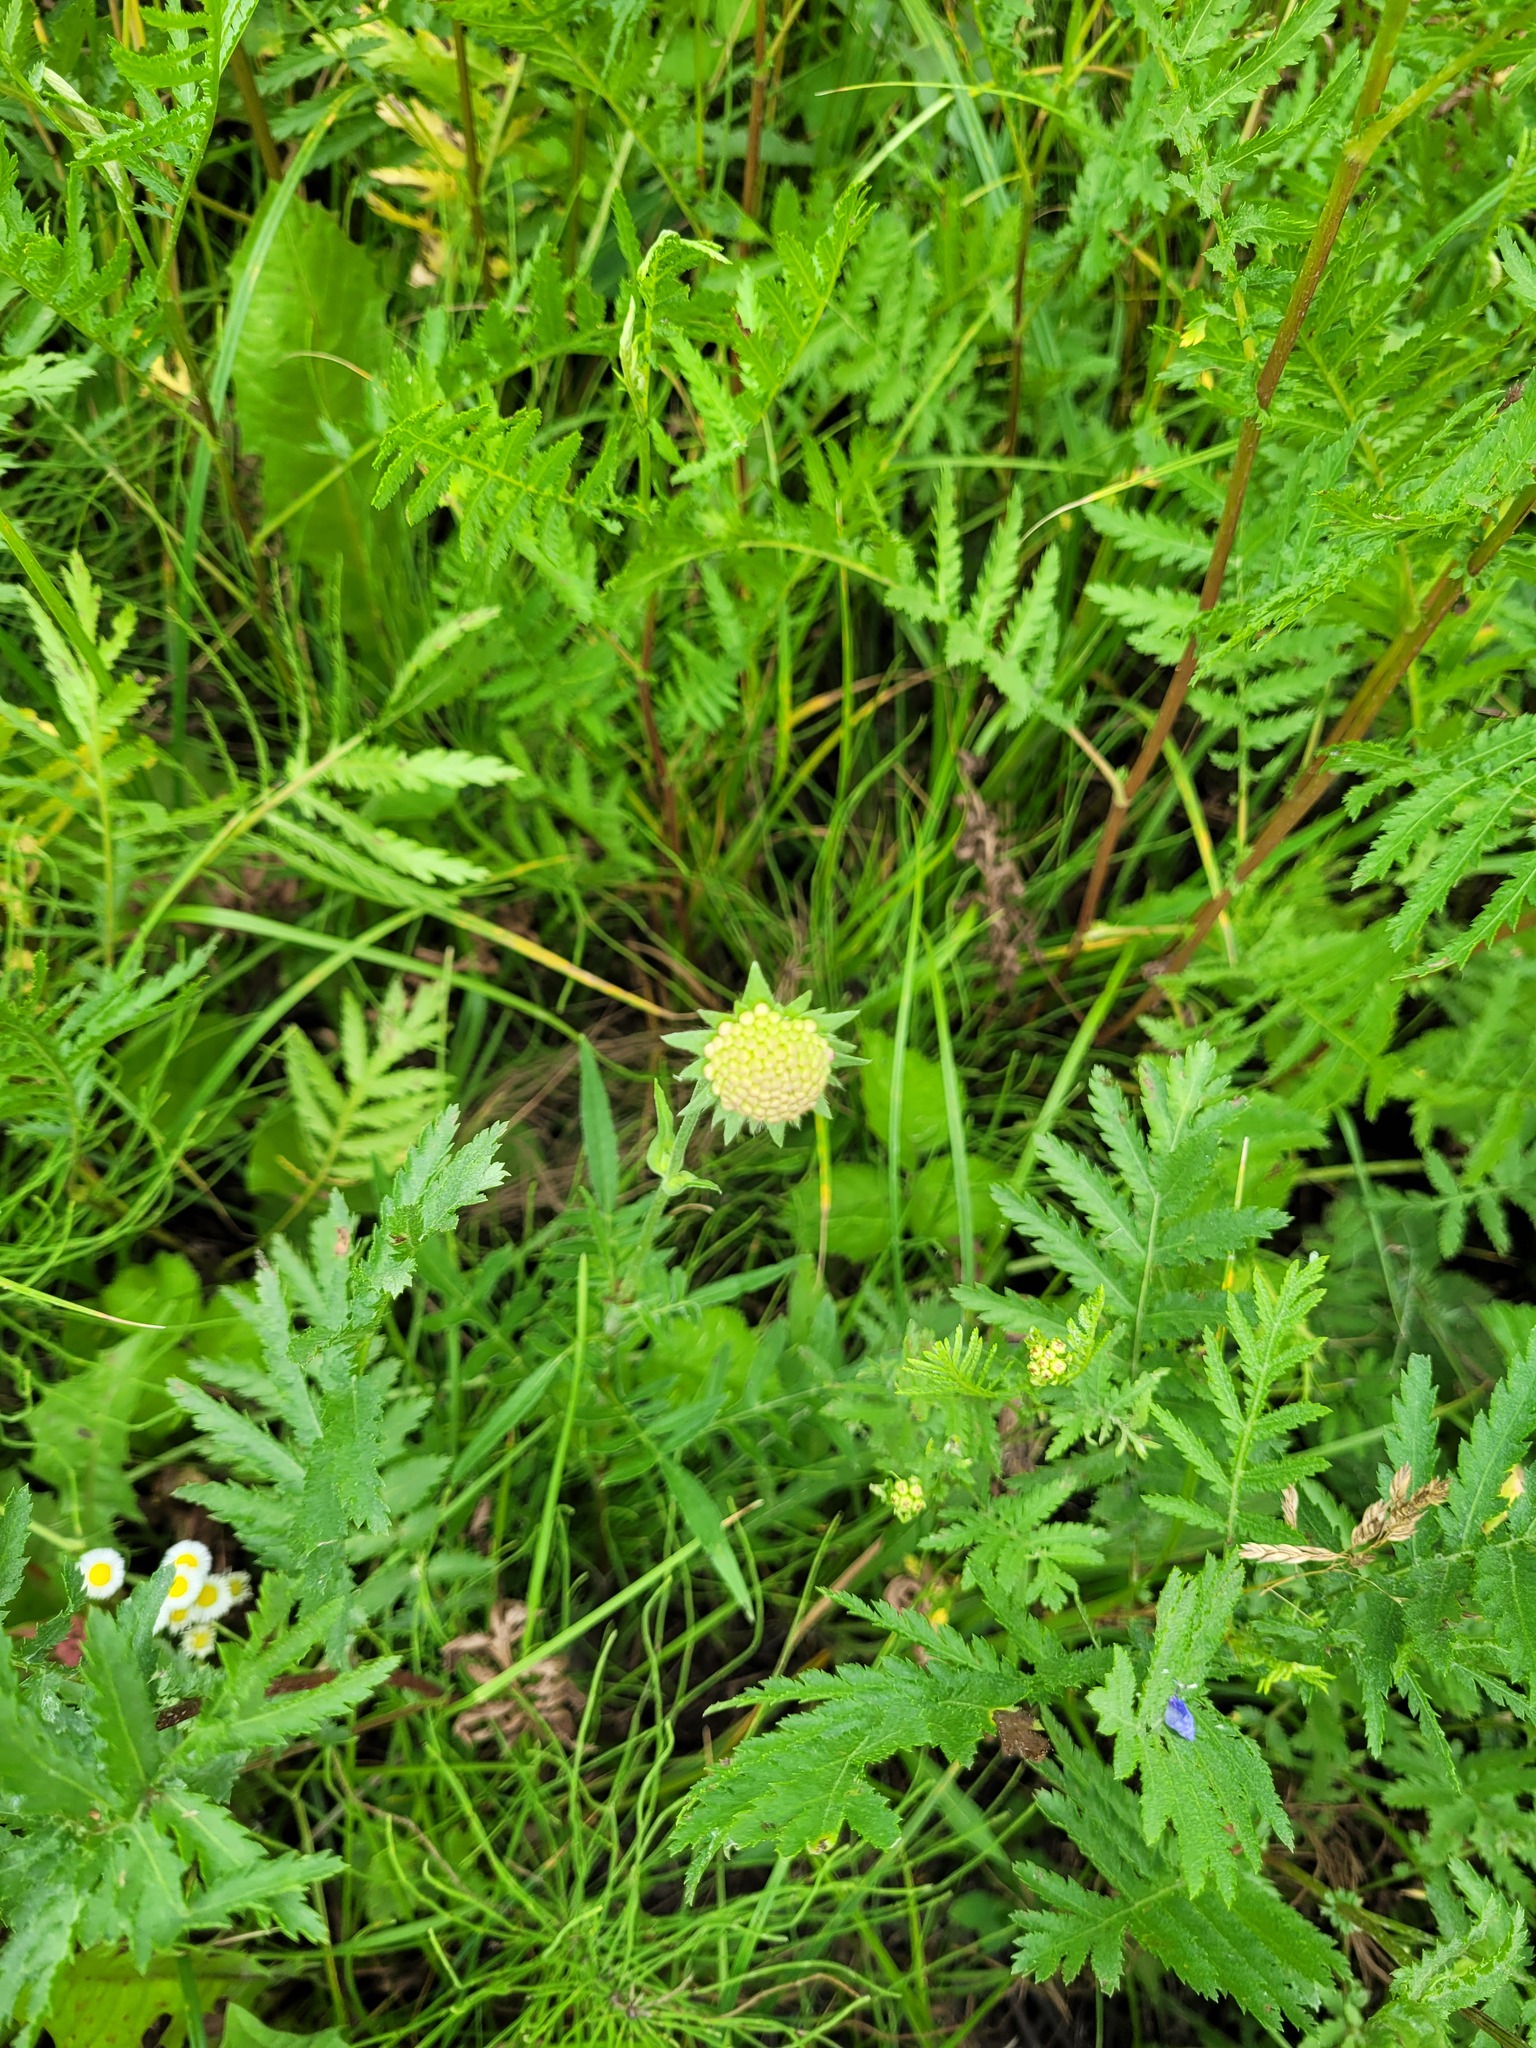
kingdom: Plantae
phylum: Tracheophyta
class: Magnoliopsida
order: Dipsacales
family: Caprifoliaceae
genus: Knautia
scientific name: Knautia arvensis
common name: Field scabiosa
